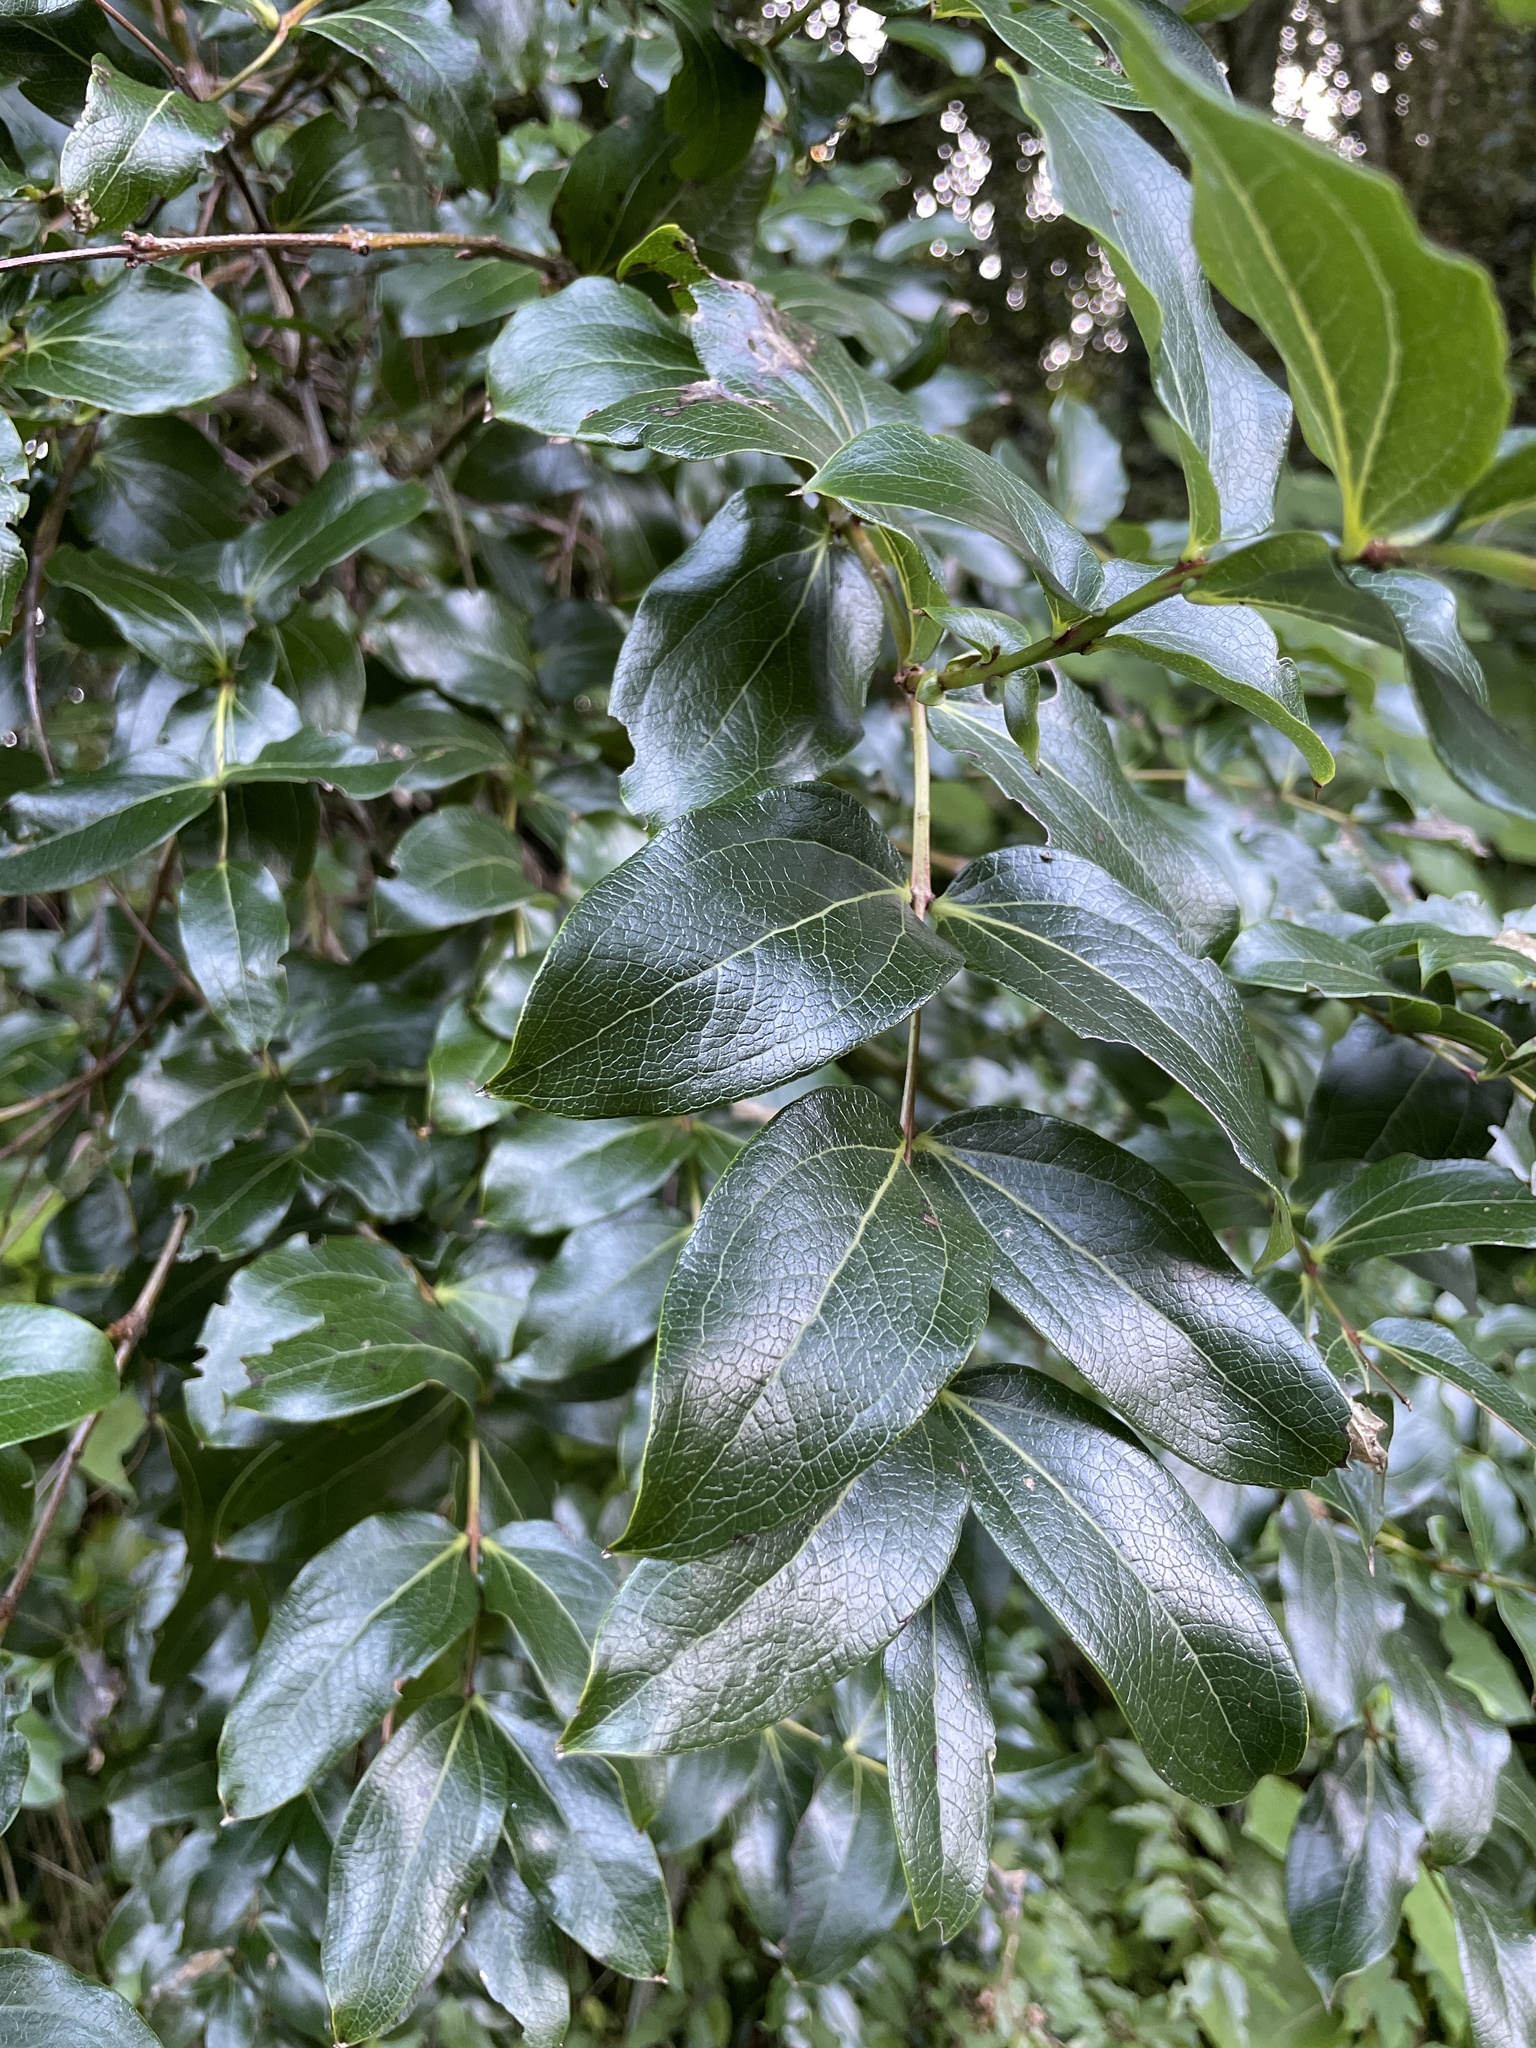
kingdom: Plantae
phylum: Tracheophyta
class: Magnoliopsida
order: Cucurbitales
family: Coriariaceae
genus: Coriaria
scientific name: Coriaria arborea
